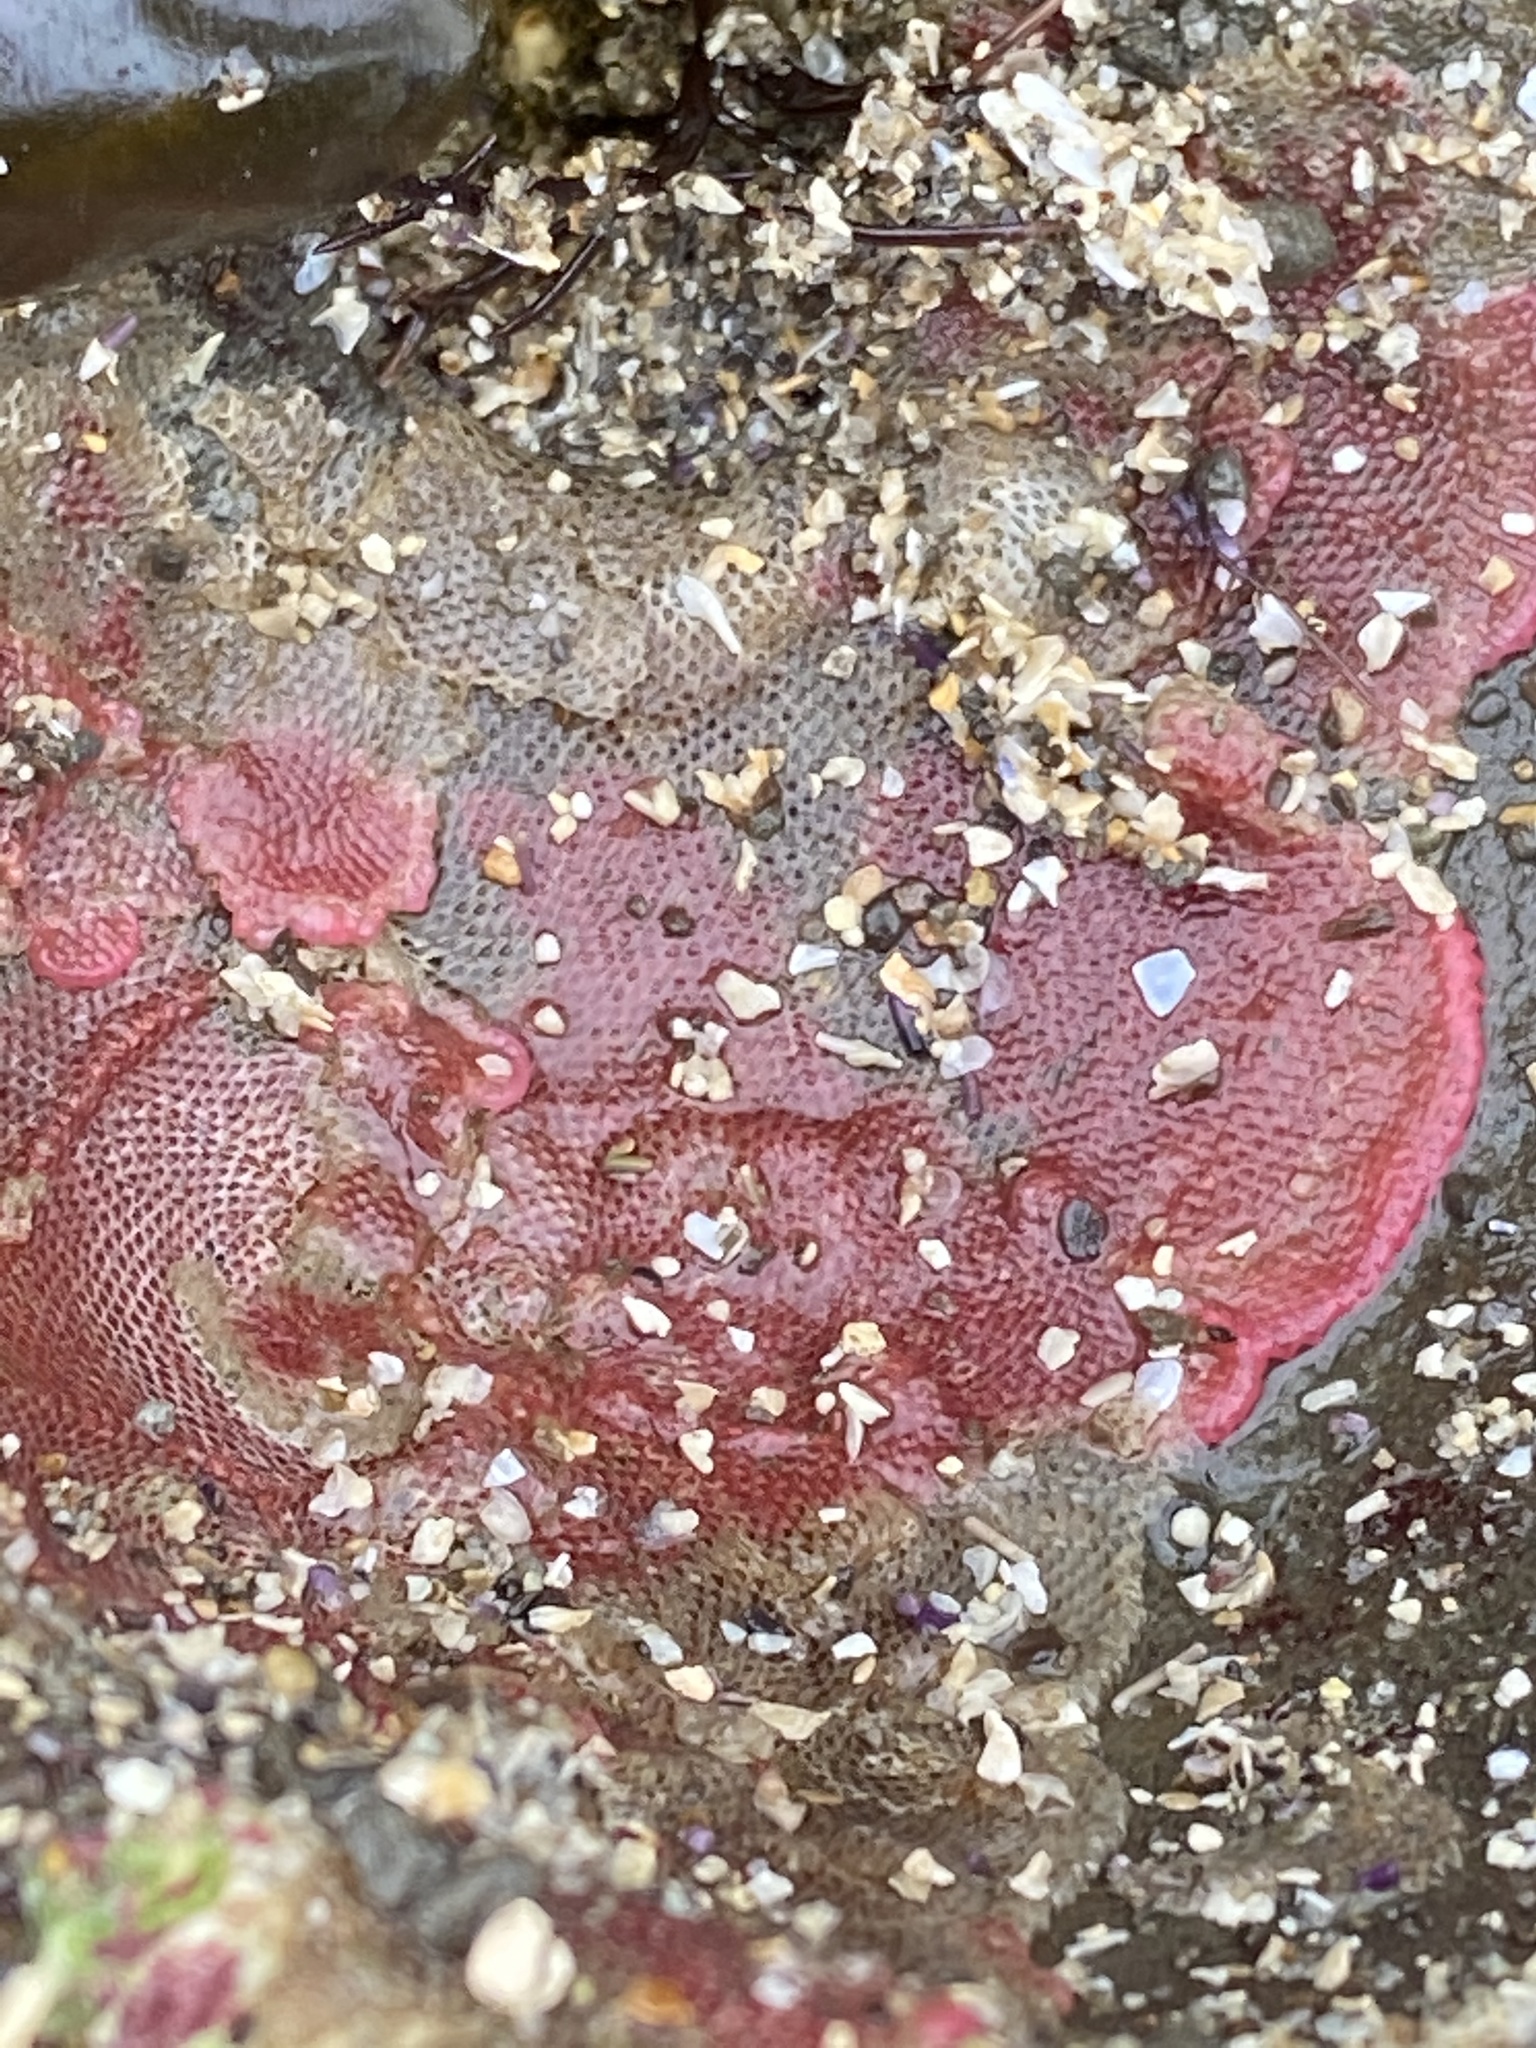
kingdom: Animalia
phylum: Bryozoa
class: Gymnolaemata
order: Cheilostomatida
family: Eurystomellidae
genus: Integripelta
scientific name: Integripelta bilabiata
